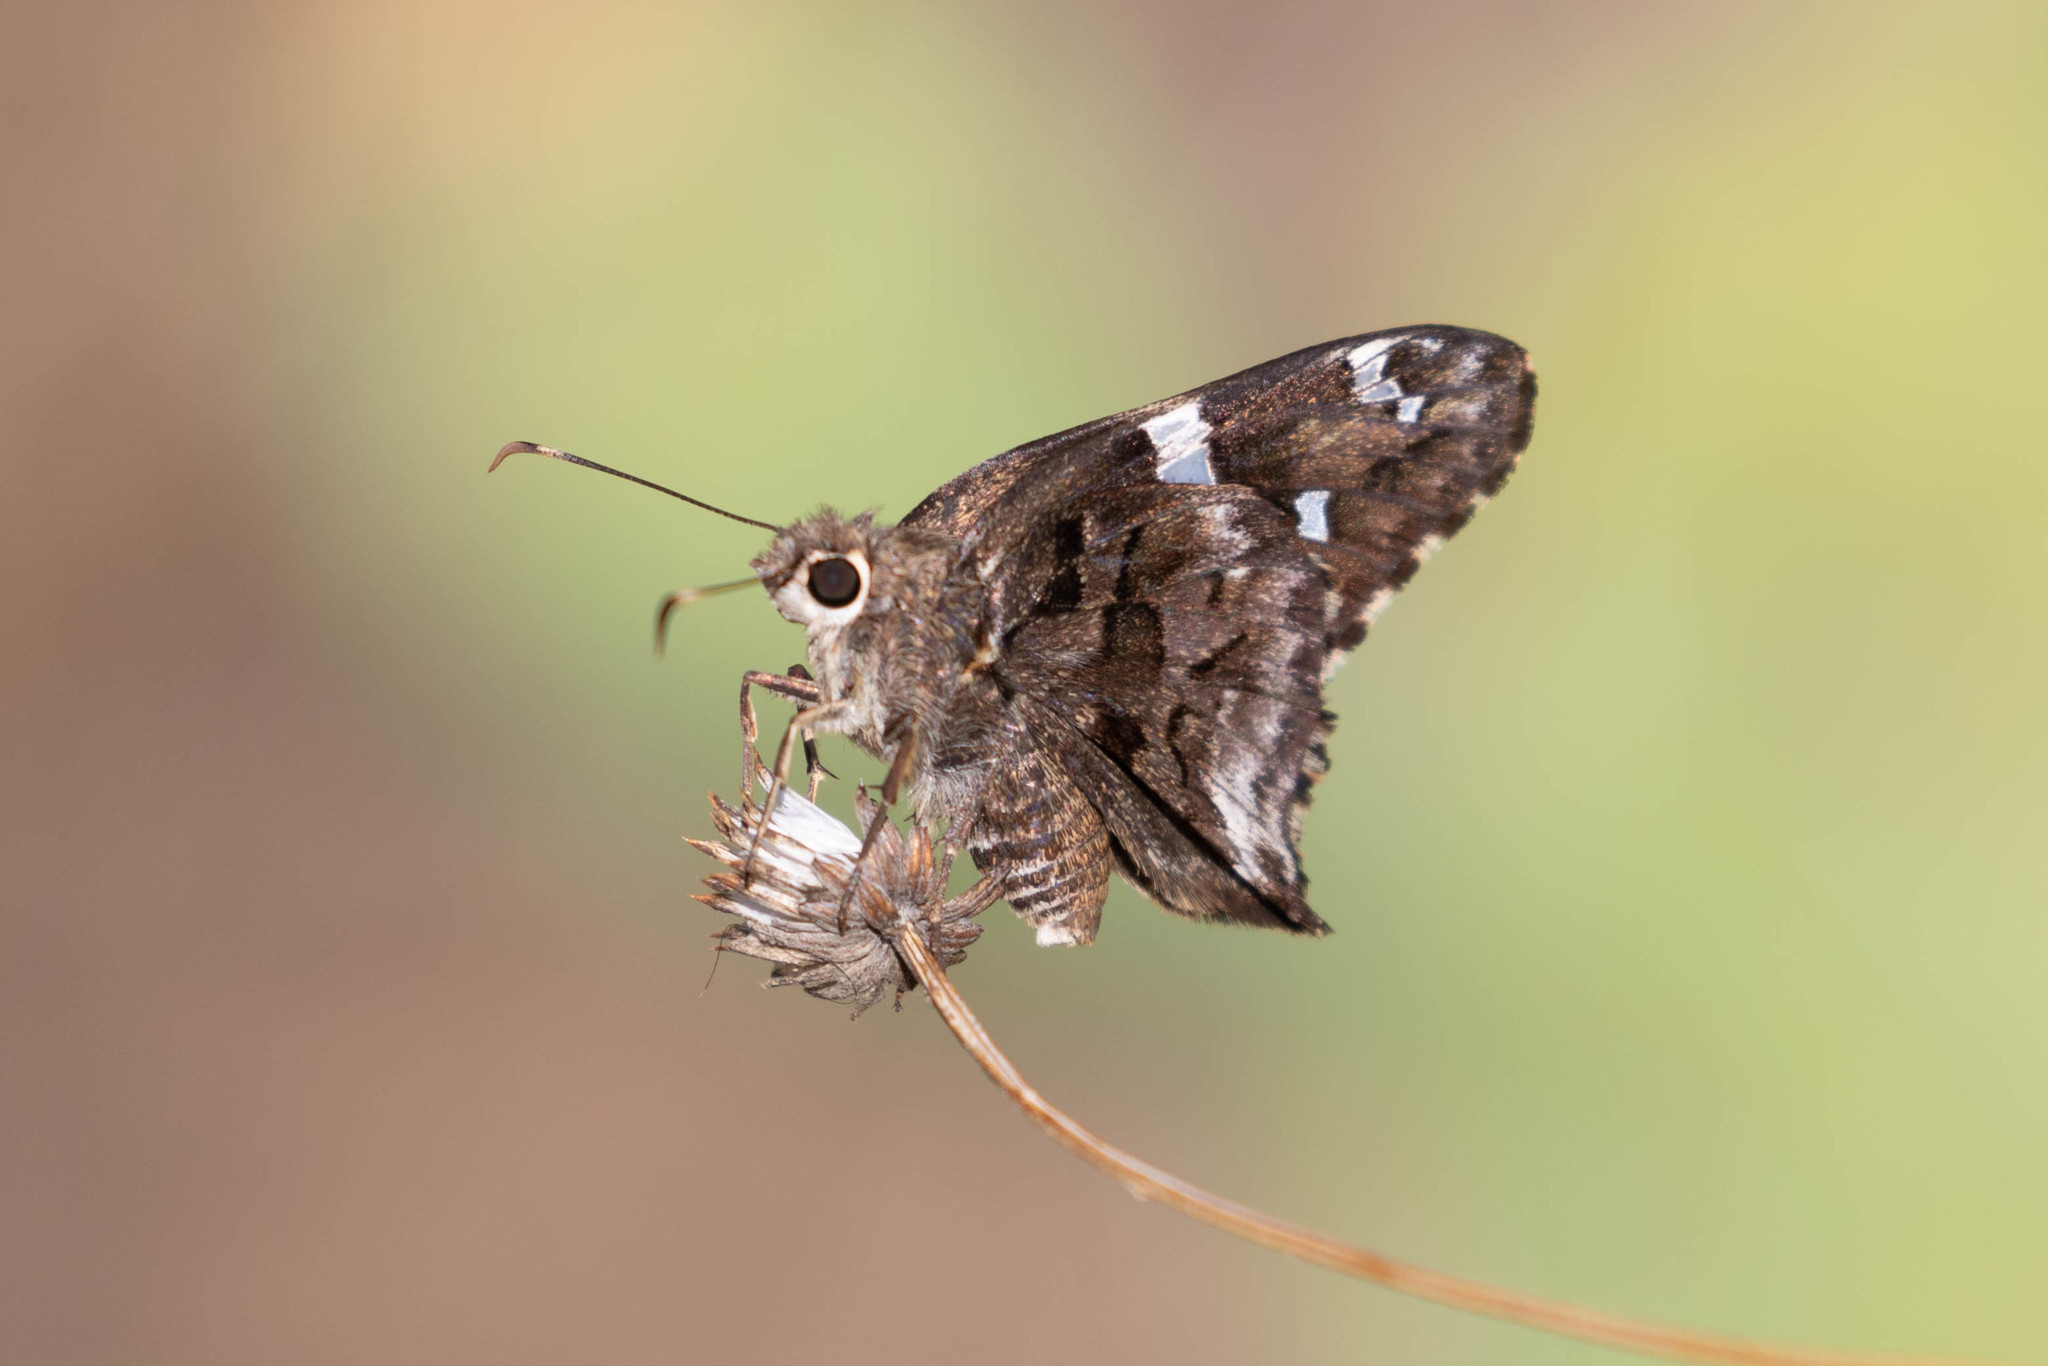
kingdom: Animalia
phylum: Arthropoda
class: Insecta
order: Lepidoptera
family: Hesperiidae
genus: Codatractus
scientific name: Codatractus arizonensis
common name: Arizona skipper
